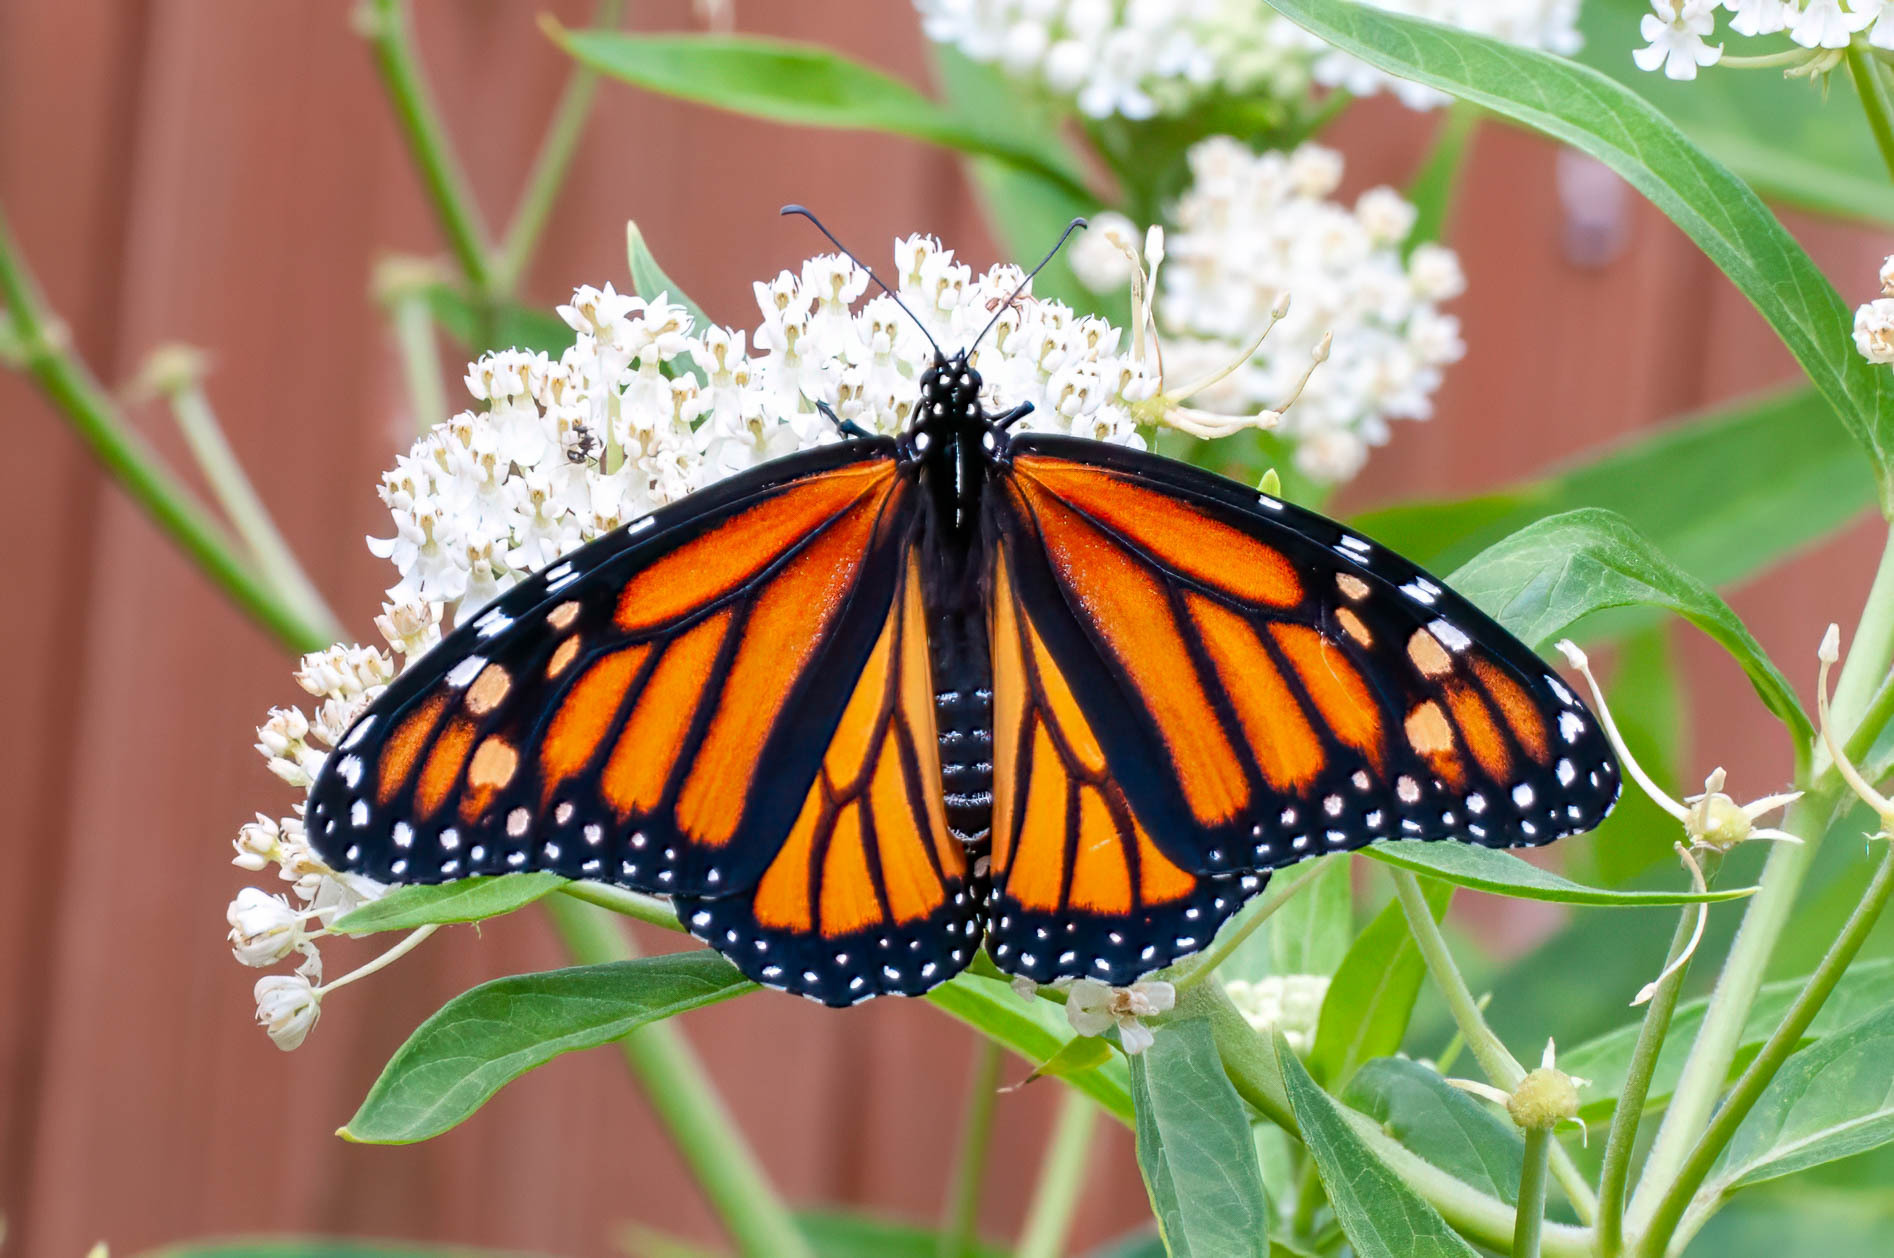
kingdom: Animalia
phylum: Arthropoda
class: Insecta
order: Lepidoptera
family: Nymphalidae
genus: Danaus
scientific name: Danaus plexippus
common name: Monarch
